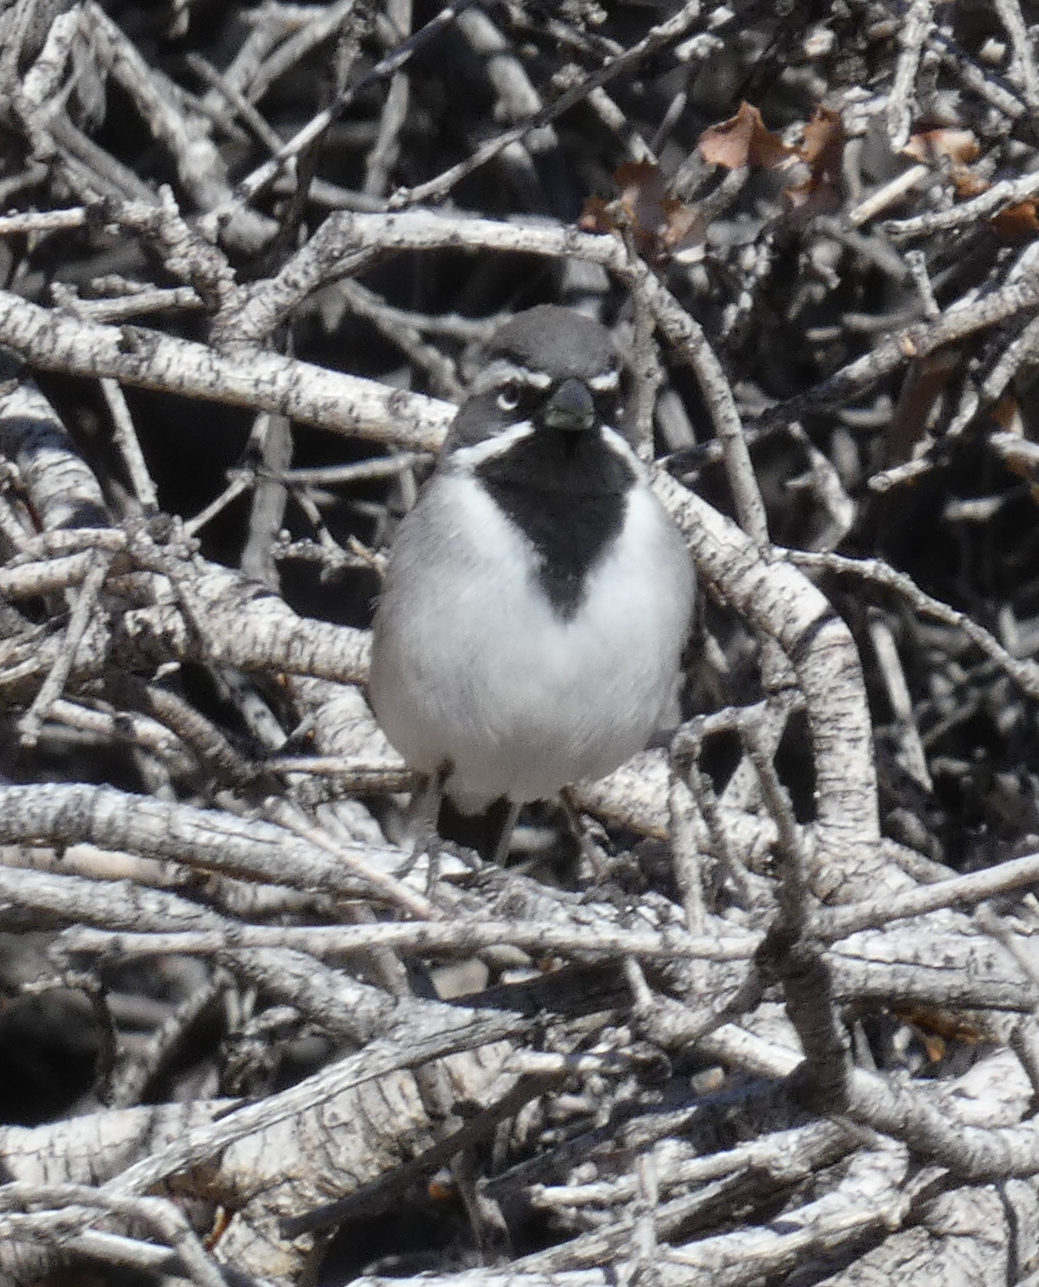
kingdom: Animalia
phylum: Chordata
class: Aves
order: Passeriformes
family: Passerellidae
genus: Amphispiza
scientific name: Amphispiza bilineata
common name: Black-throated sparrow
